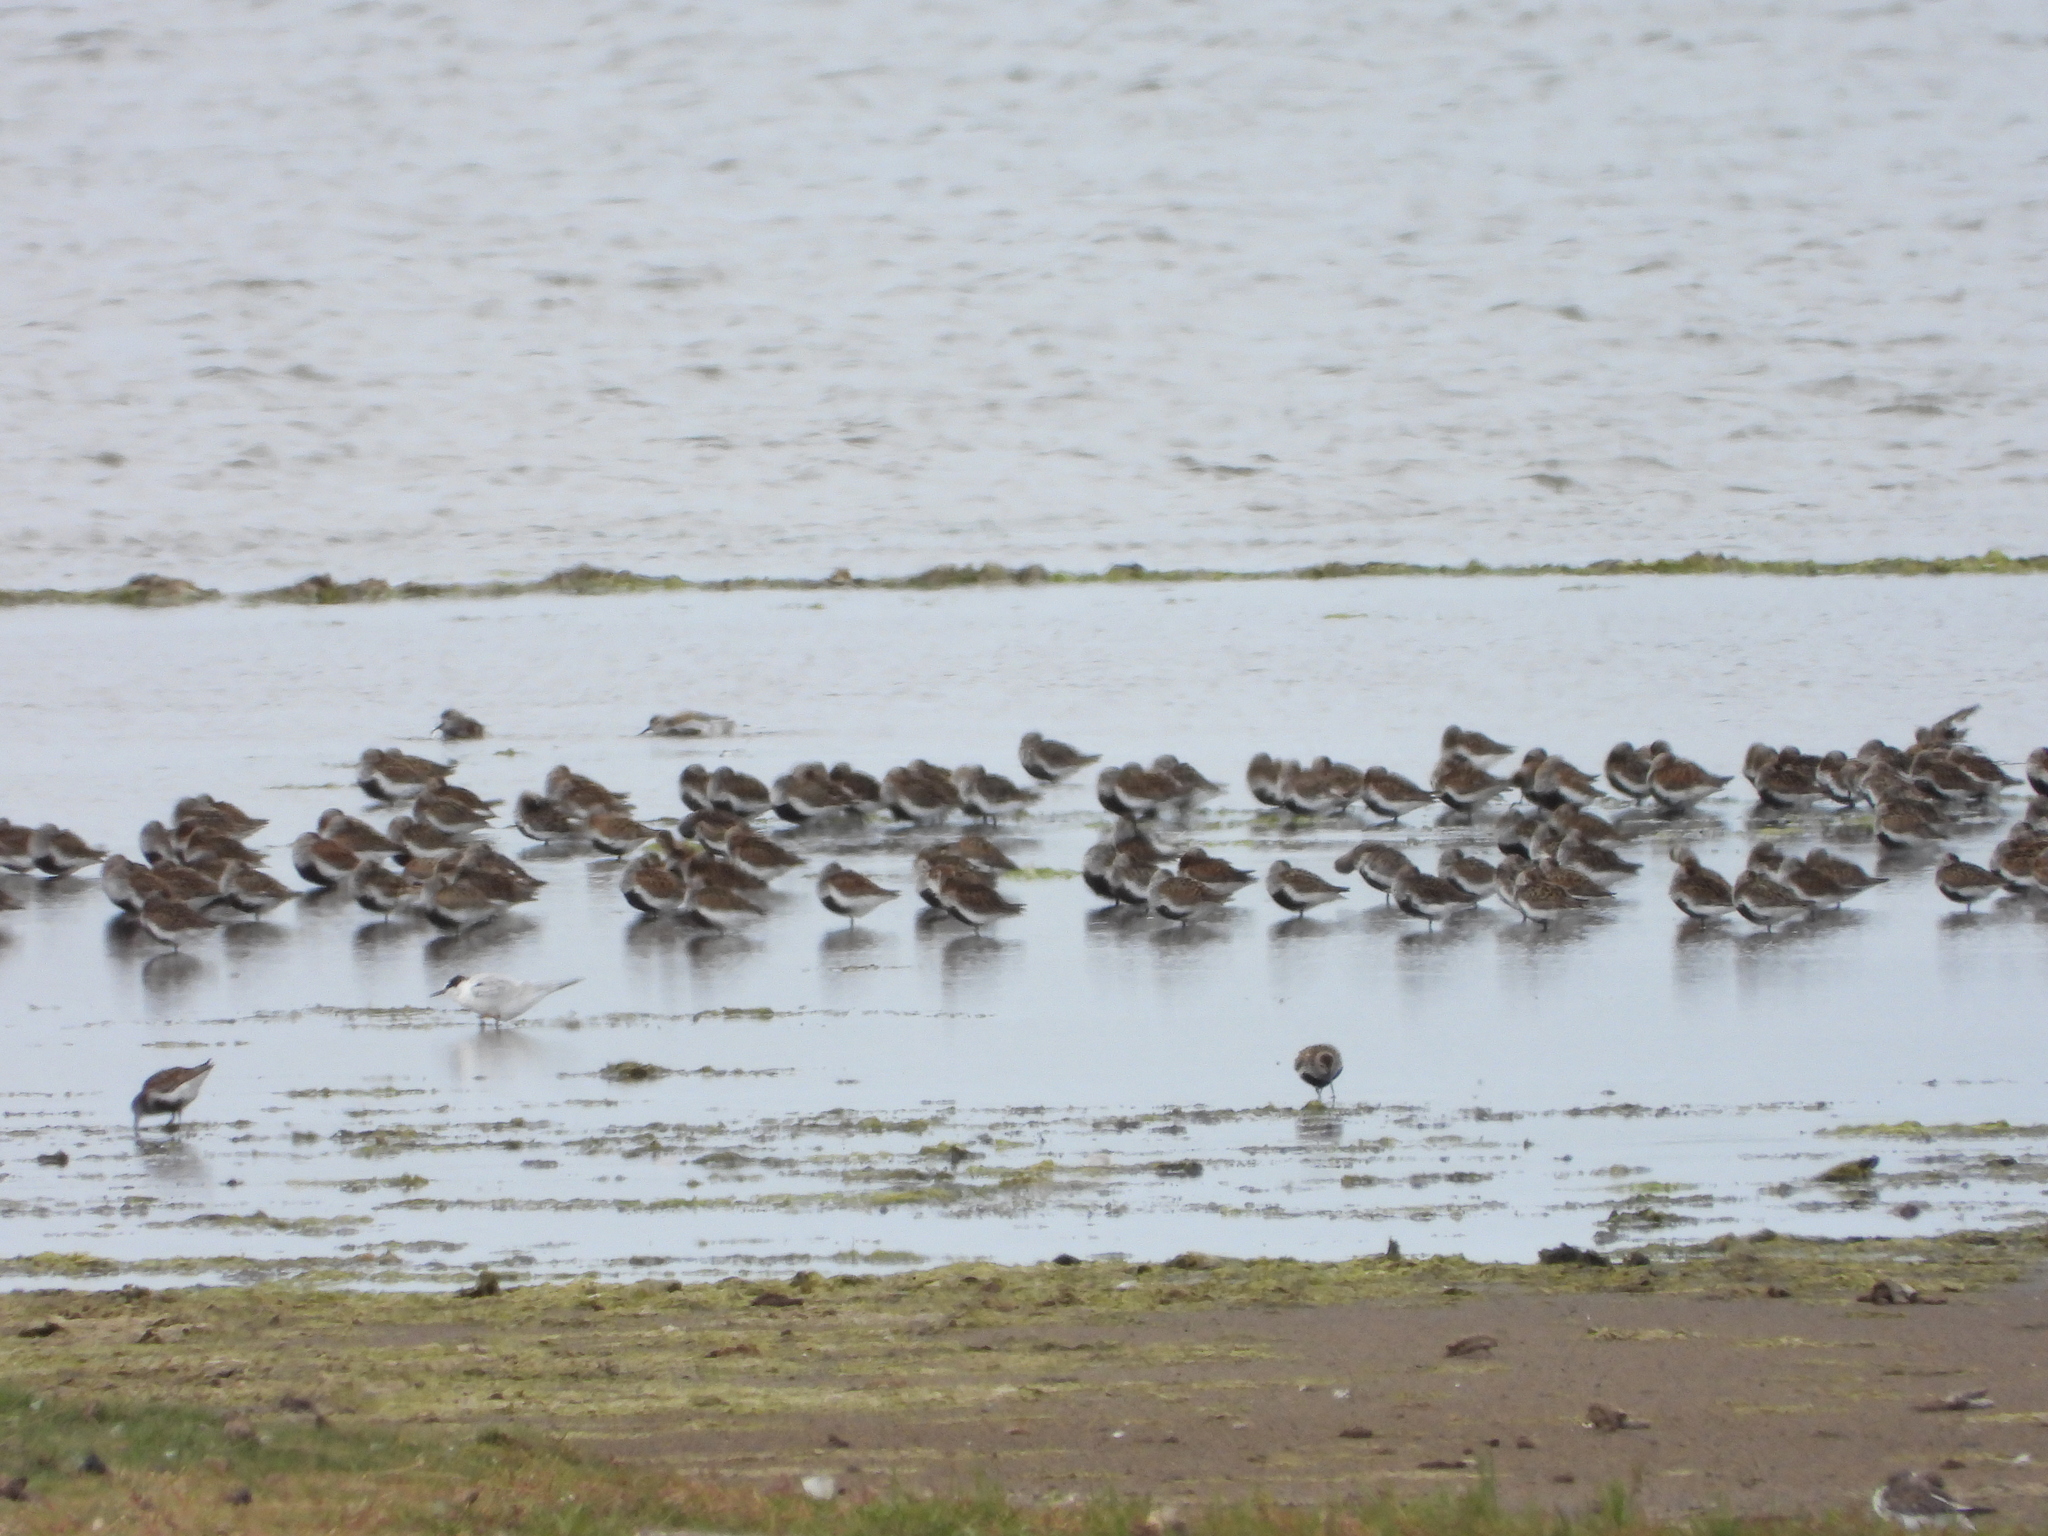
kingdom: Animalia
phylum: Chordata
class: Aves
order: Charadriiformes
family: Scolopacidae
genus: Calidris
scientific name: Calidris alpina
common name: Dunlin
